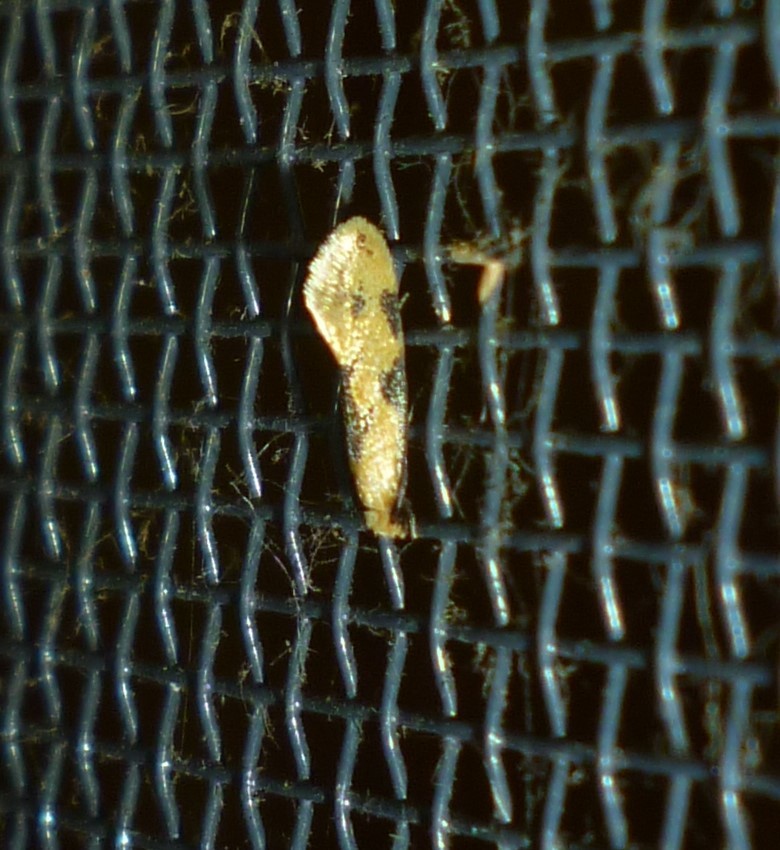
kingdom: Animalia
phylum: Arthropoda
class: Insecta
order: Lepidoptera
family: Meessiidae
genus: Hybroma
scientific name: Hybroma servulella
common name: Yellow wave moth
